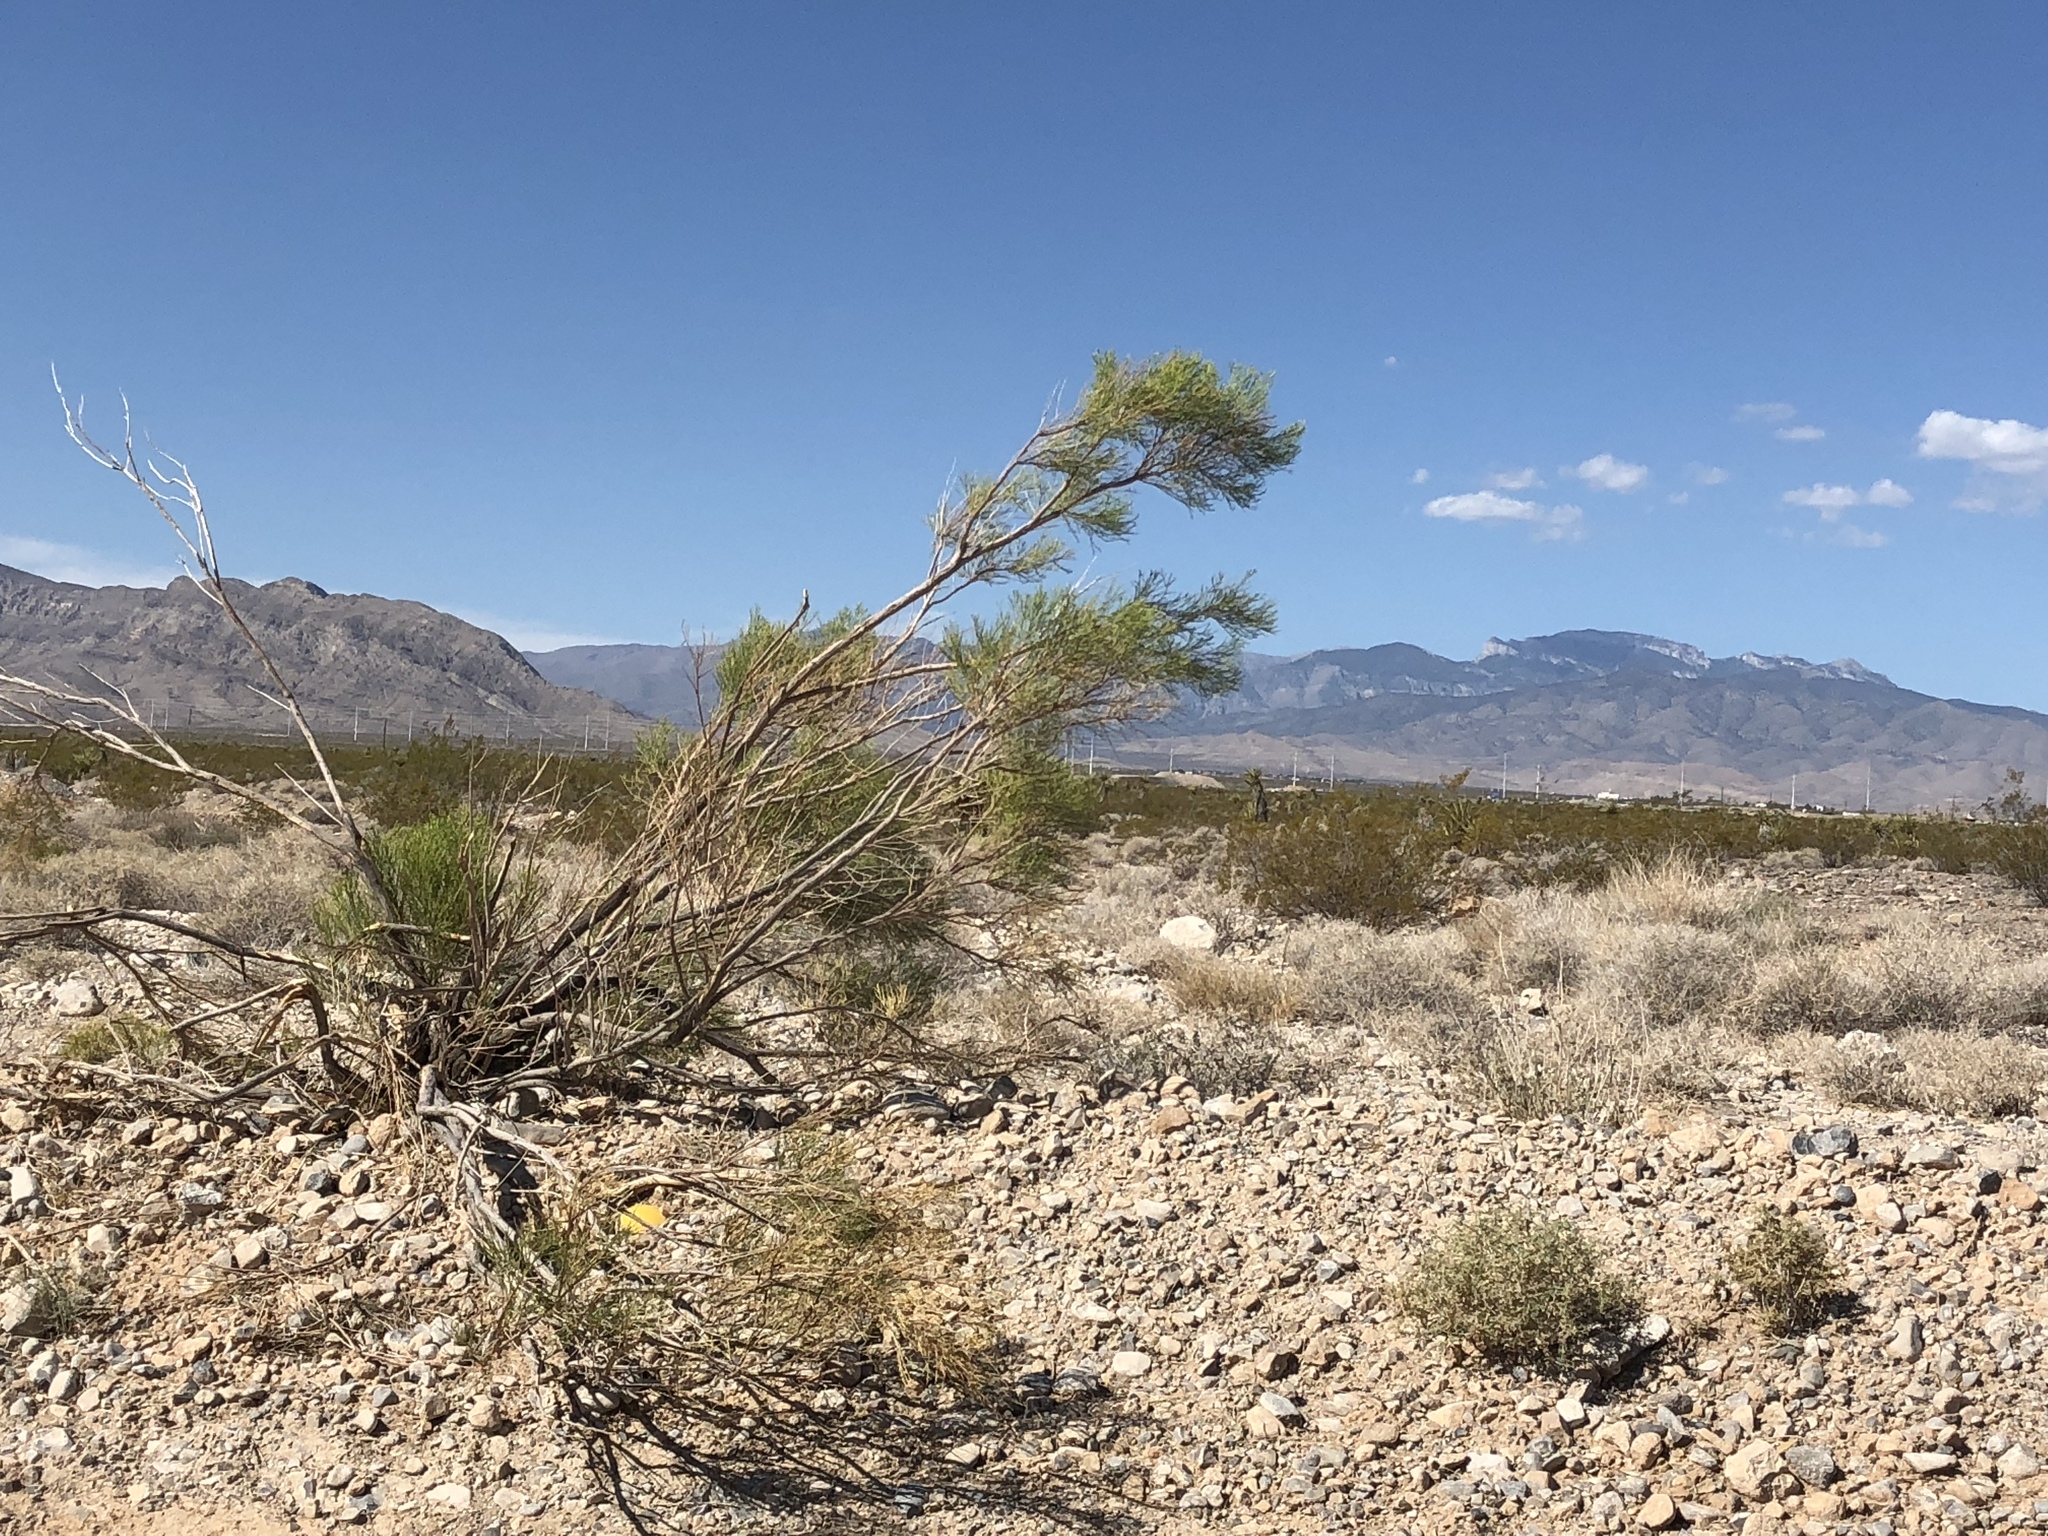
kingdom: Plantae
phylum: Tracheophyta
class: Magnoliopsida
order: Zygophyllales
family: Zygophyllaceae
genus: Larrea
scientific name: Larrea tridentata
